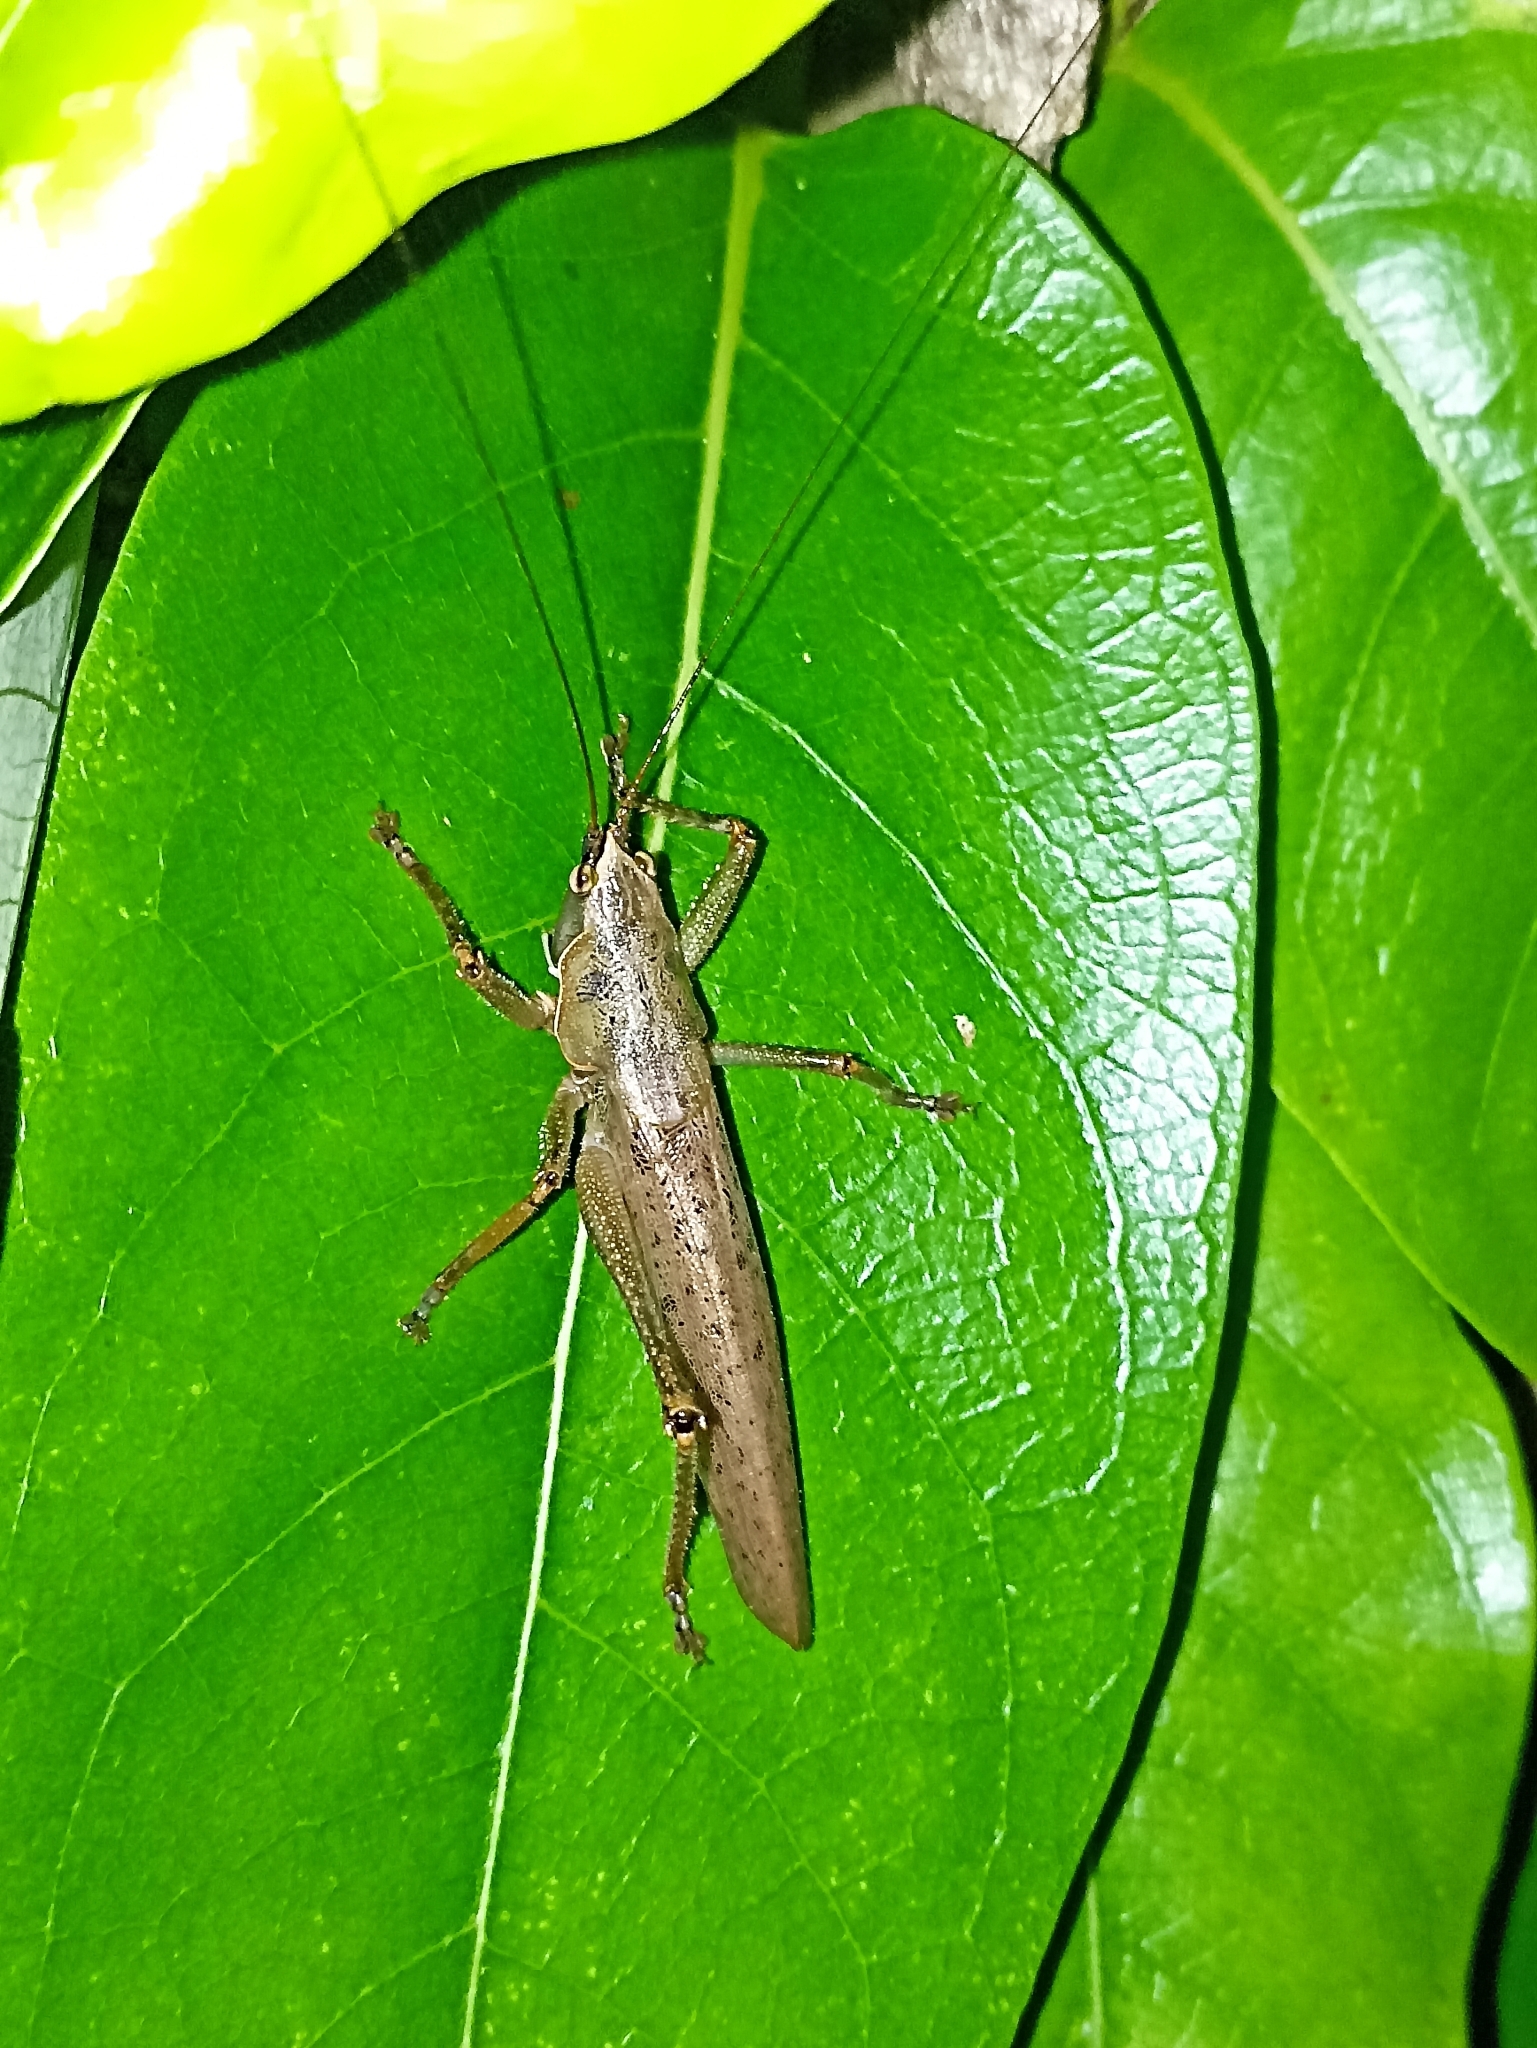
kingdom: Animalia
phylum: Arthropoda
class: Insecta
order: Orthoptera
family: Tettigoniidae
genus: Austrosalomona
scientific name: Austrosalomona falcata
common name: Olive-green coastal katydid
